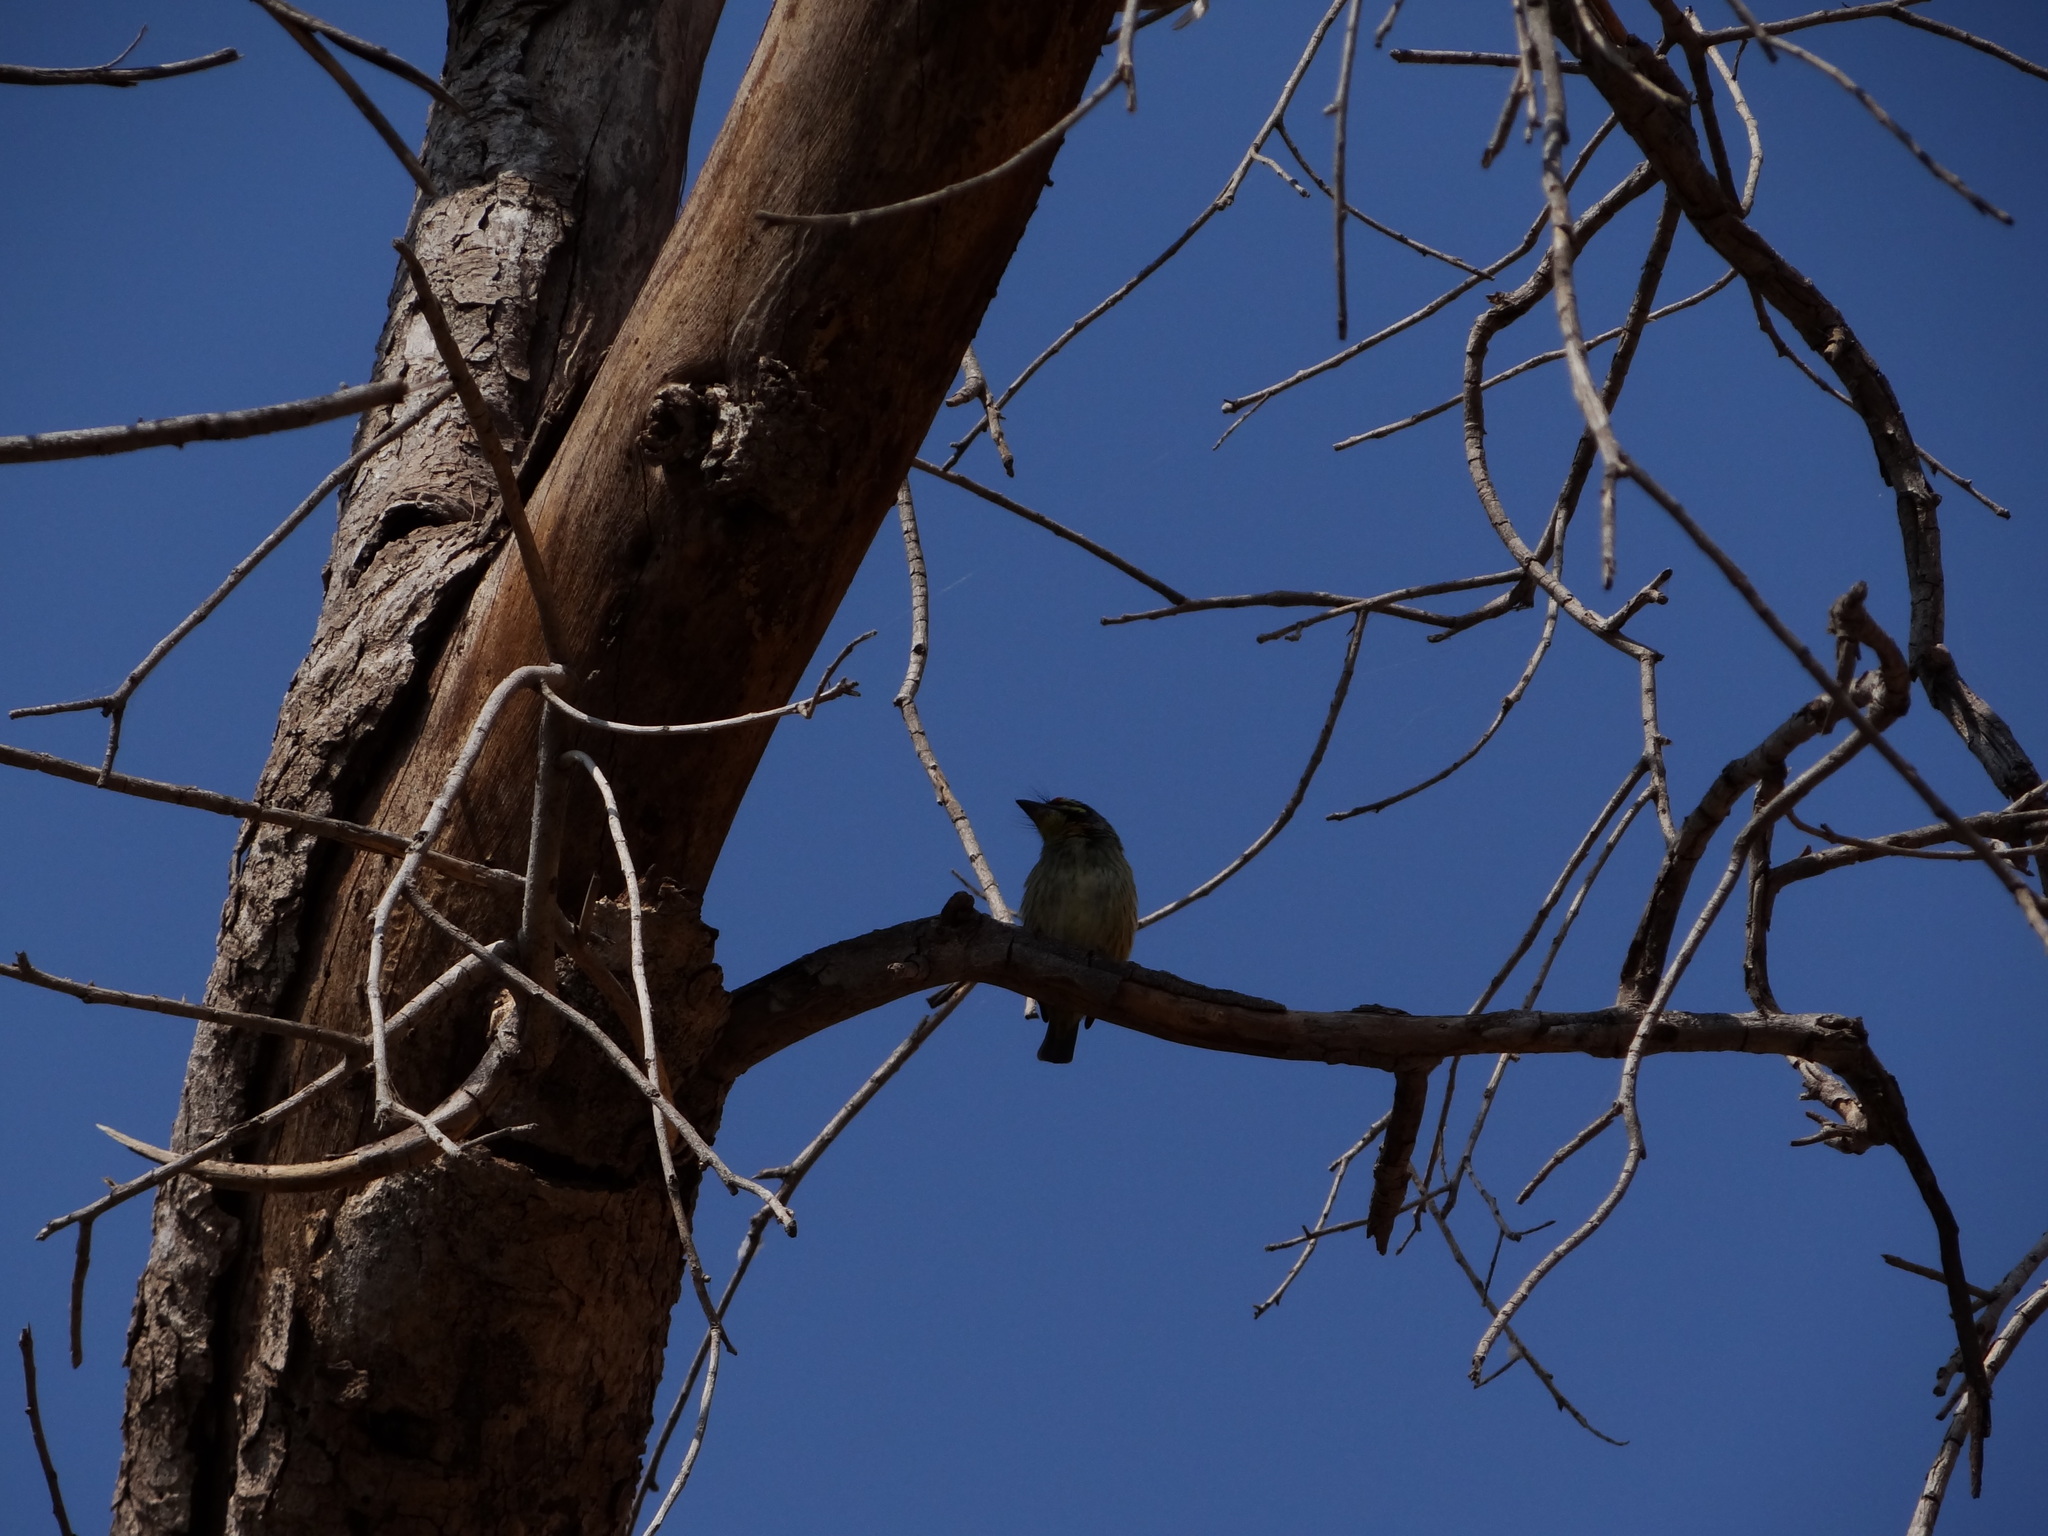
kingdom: Animalia
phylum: Chordata
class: Aves
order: Piciformes
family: Megalaimidae
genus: Psilopogon
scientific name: Psilopogon haemacephalus
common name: Coppersmith barbet
